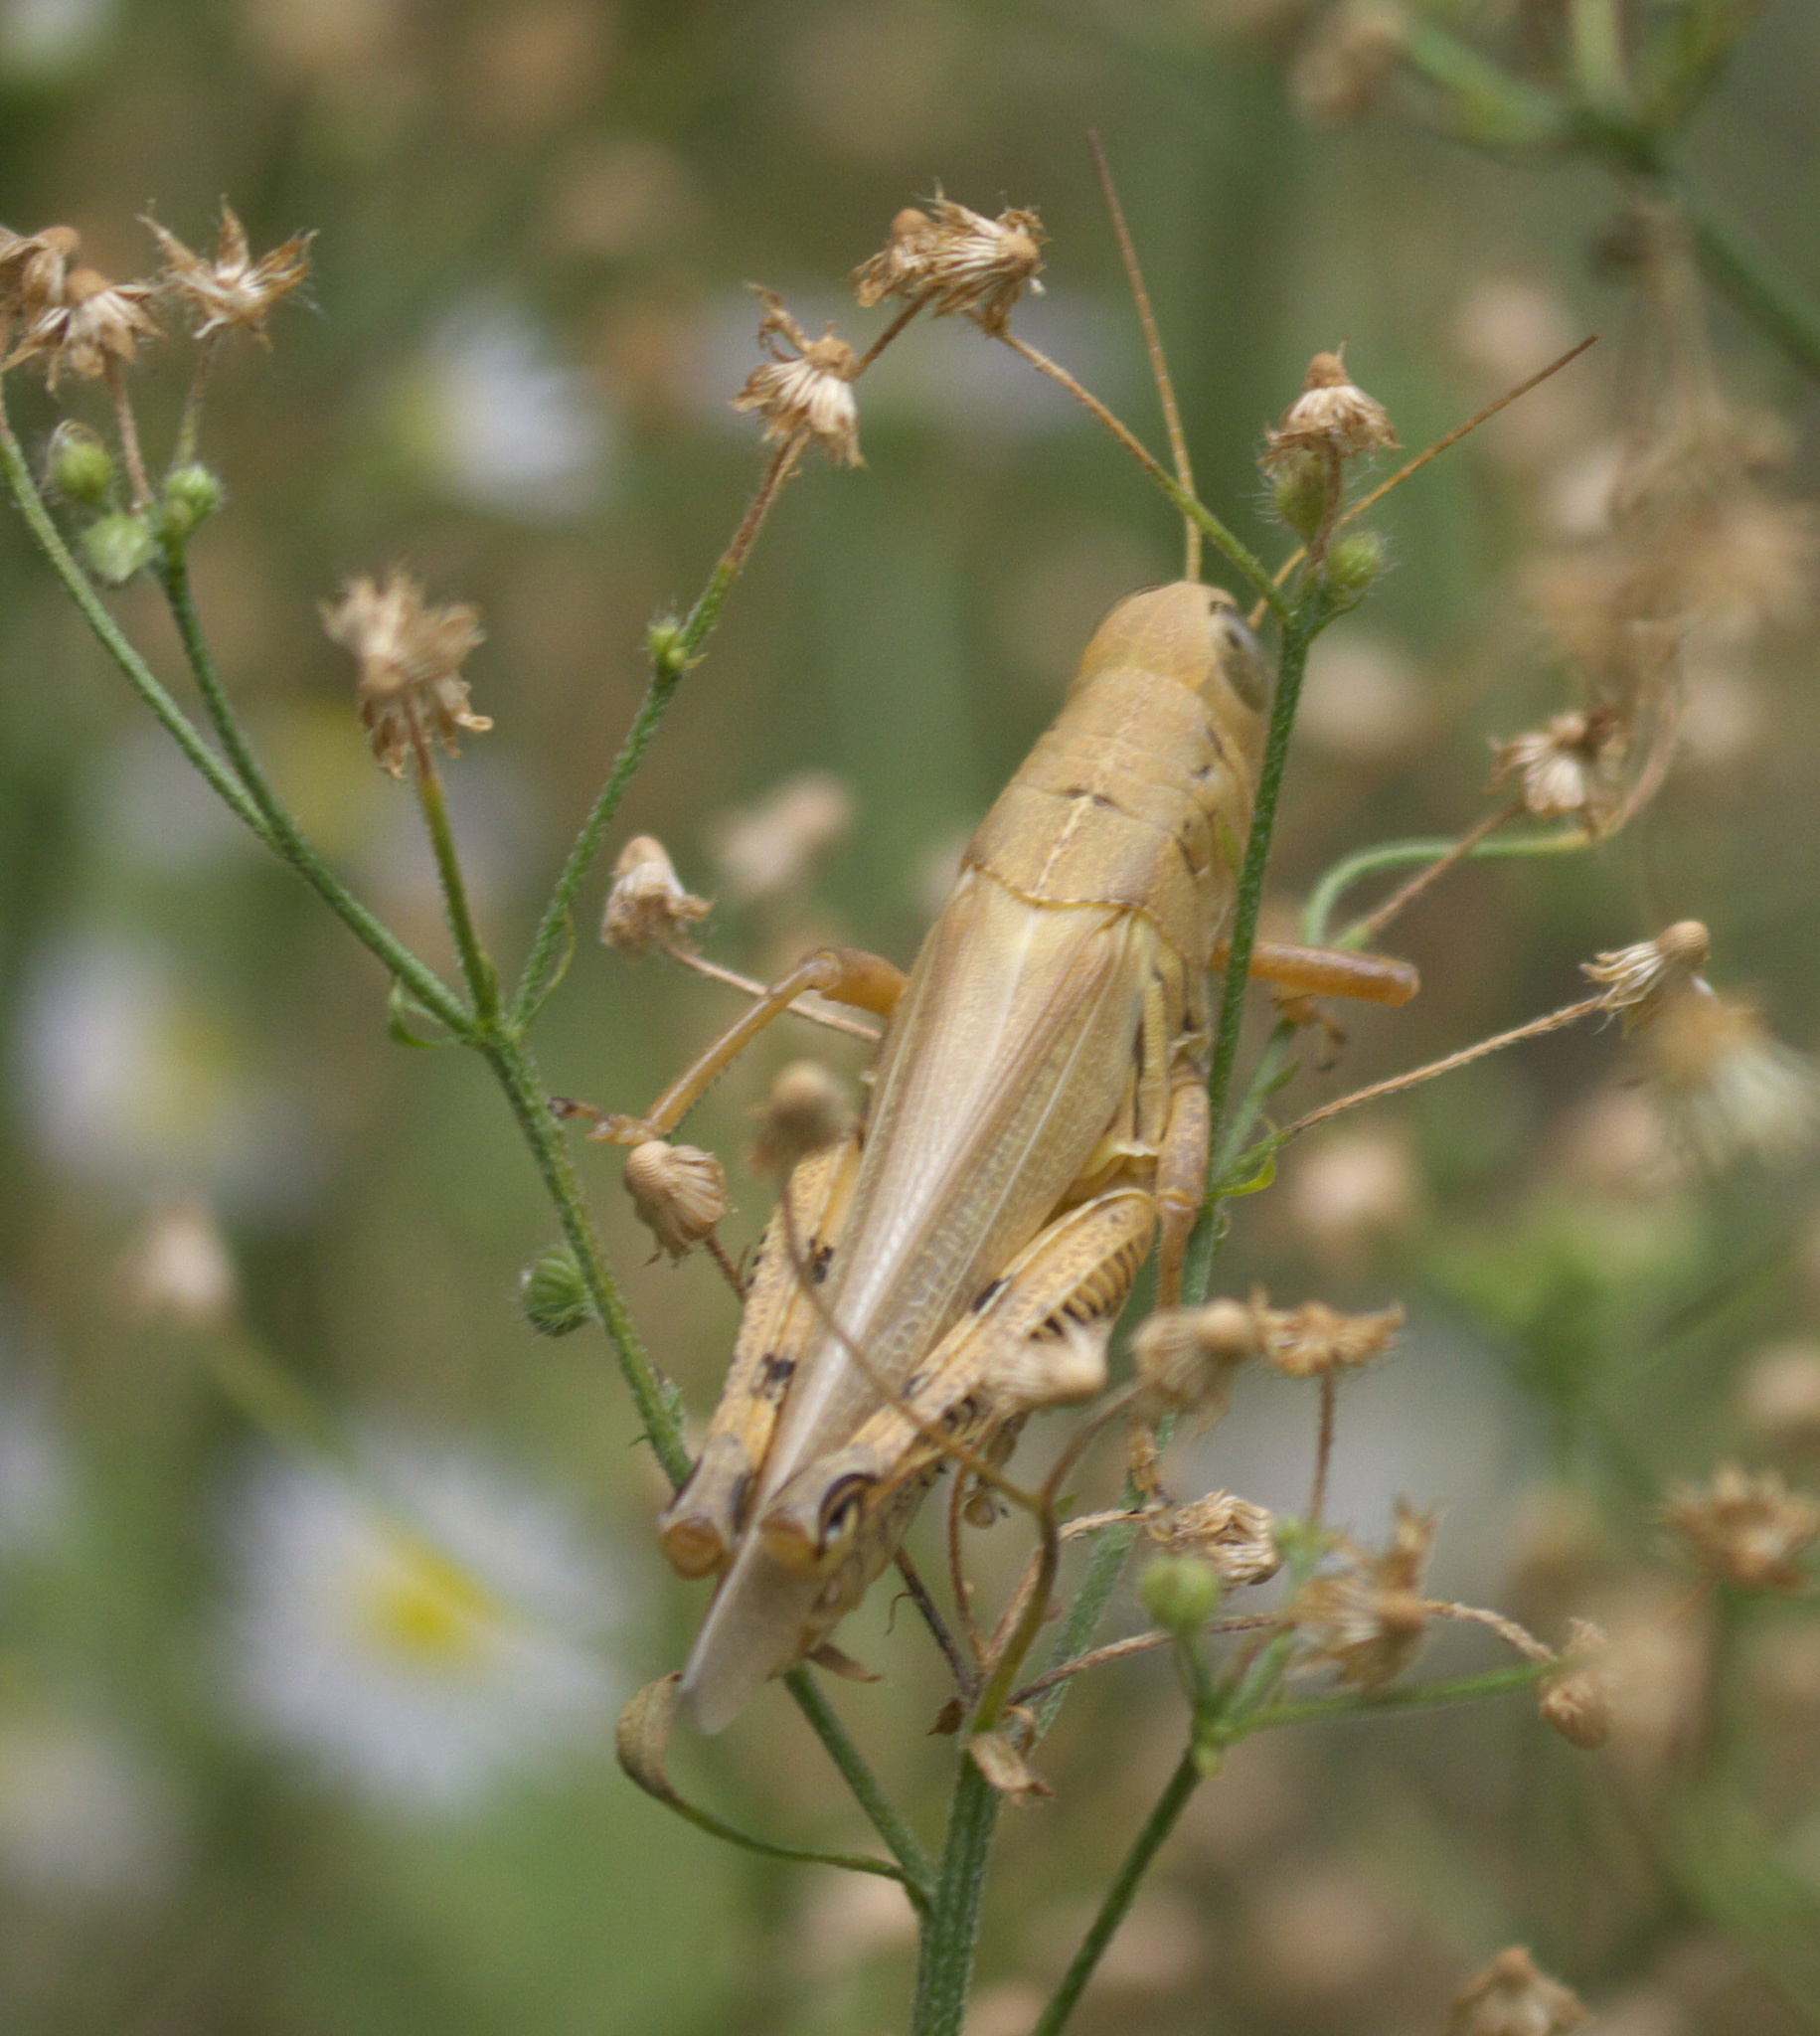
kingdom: Animalia
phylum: Arthropoda
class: Insecta
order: Orthoptera
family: Acrididae
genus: Melanoplus
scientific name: Melanoplus differentialis
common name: Differential grasshopper
